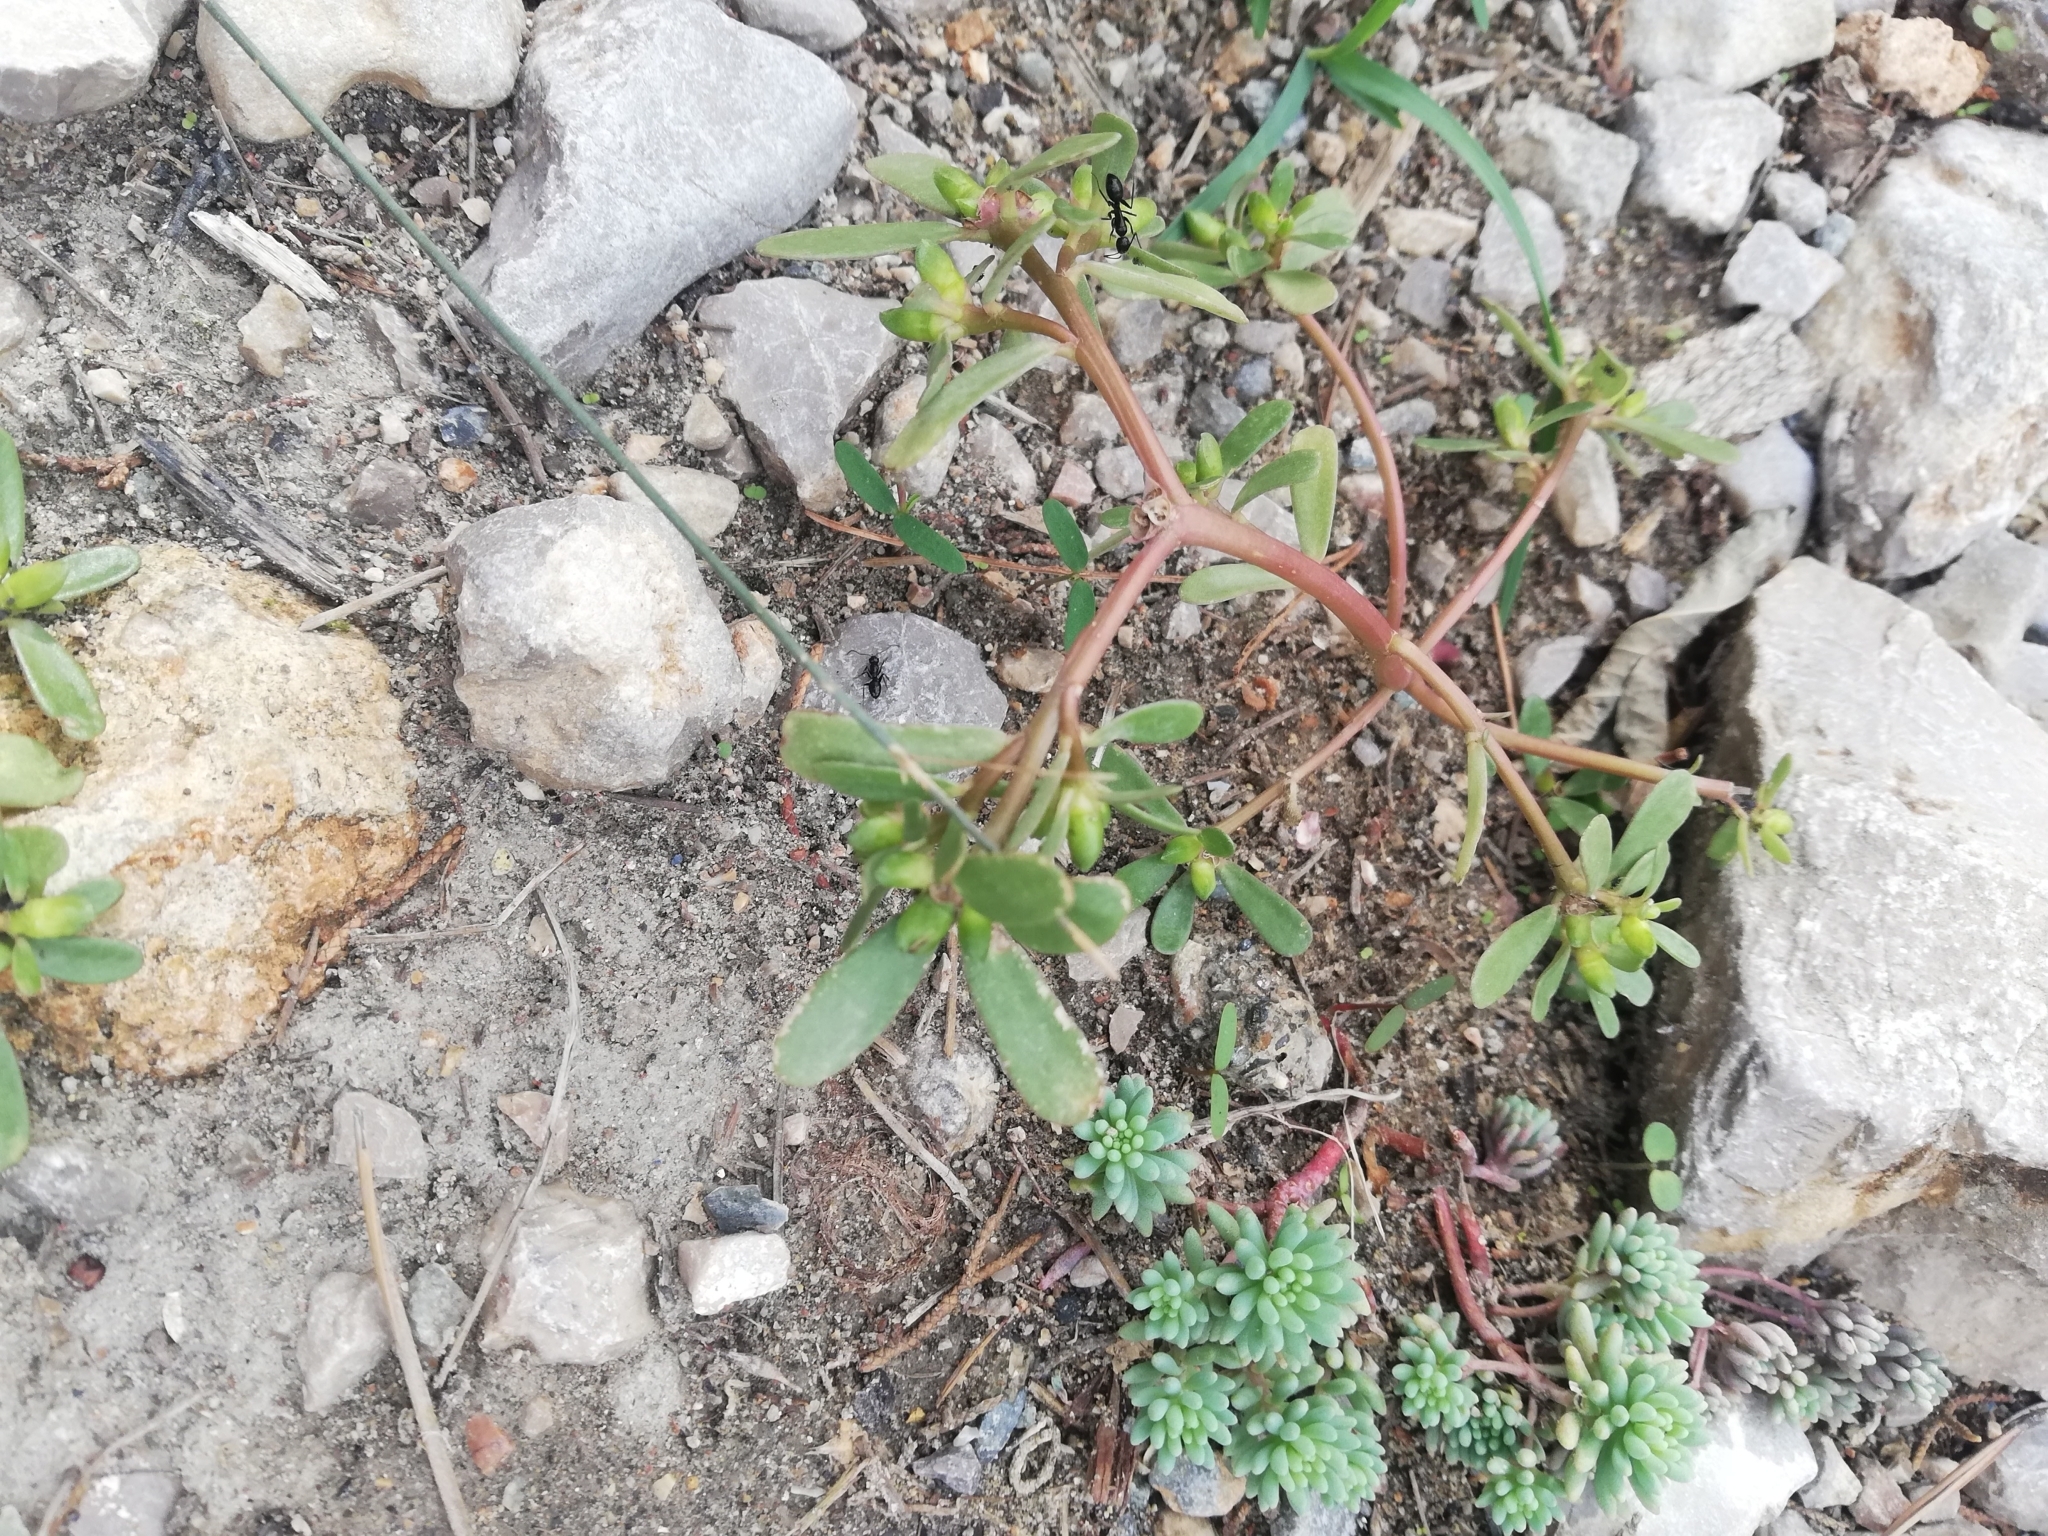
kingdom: Plantae
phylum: Tracheophyta
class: Magnoliopsida
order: Caryophyllales
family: Portulacaceae
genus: Portulaca
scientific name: Portulaca oleracea
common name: Common purslane
